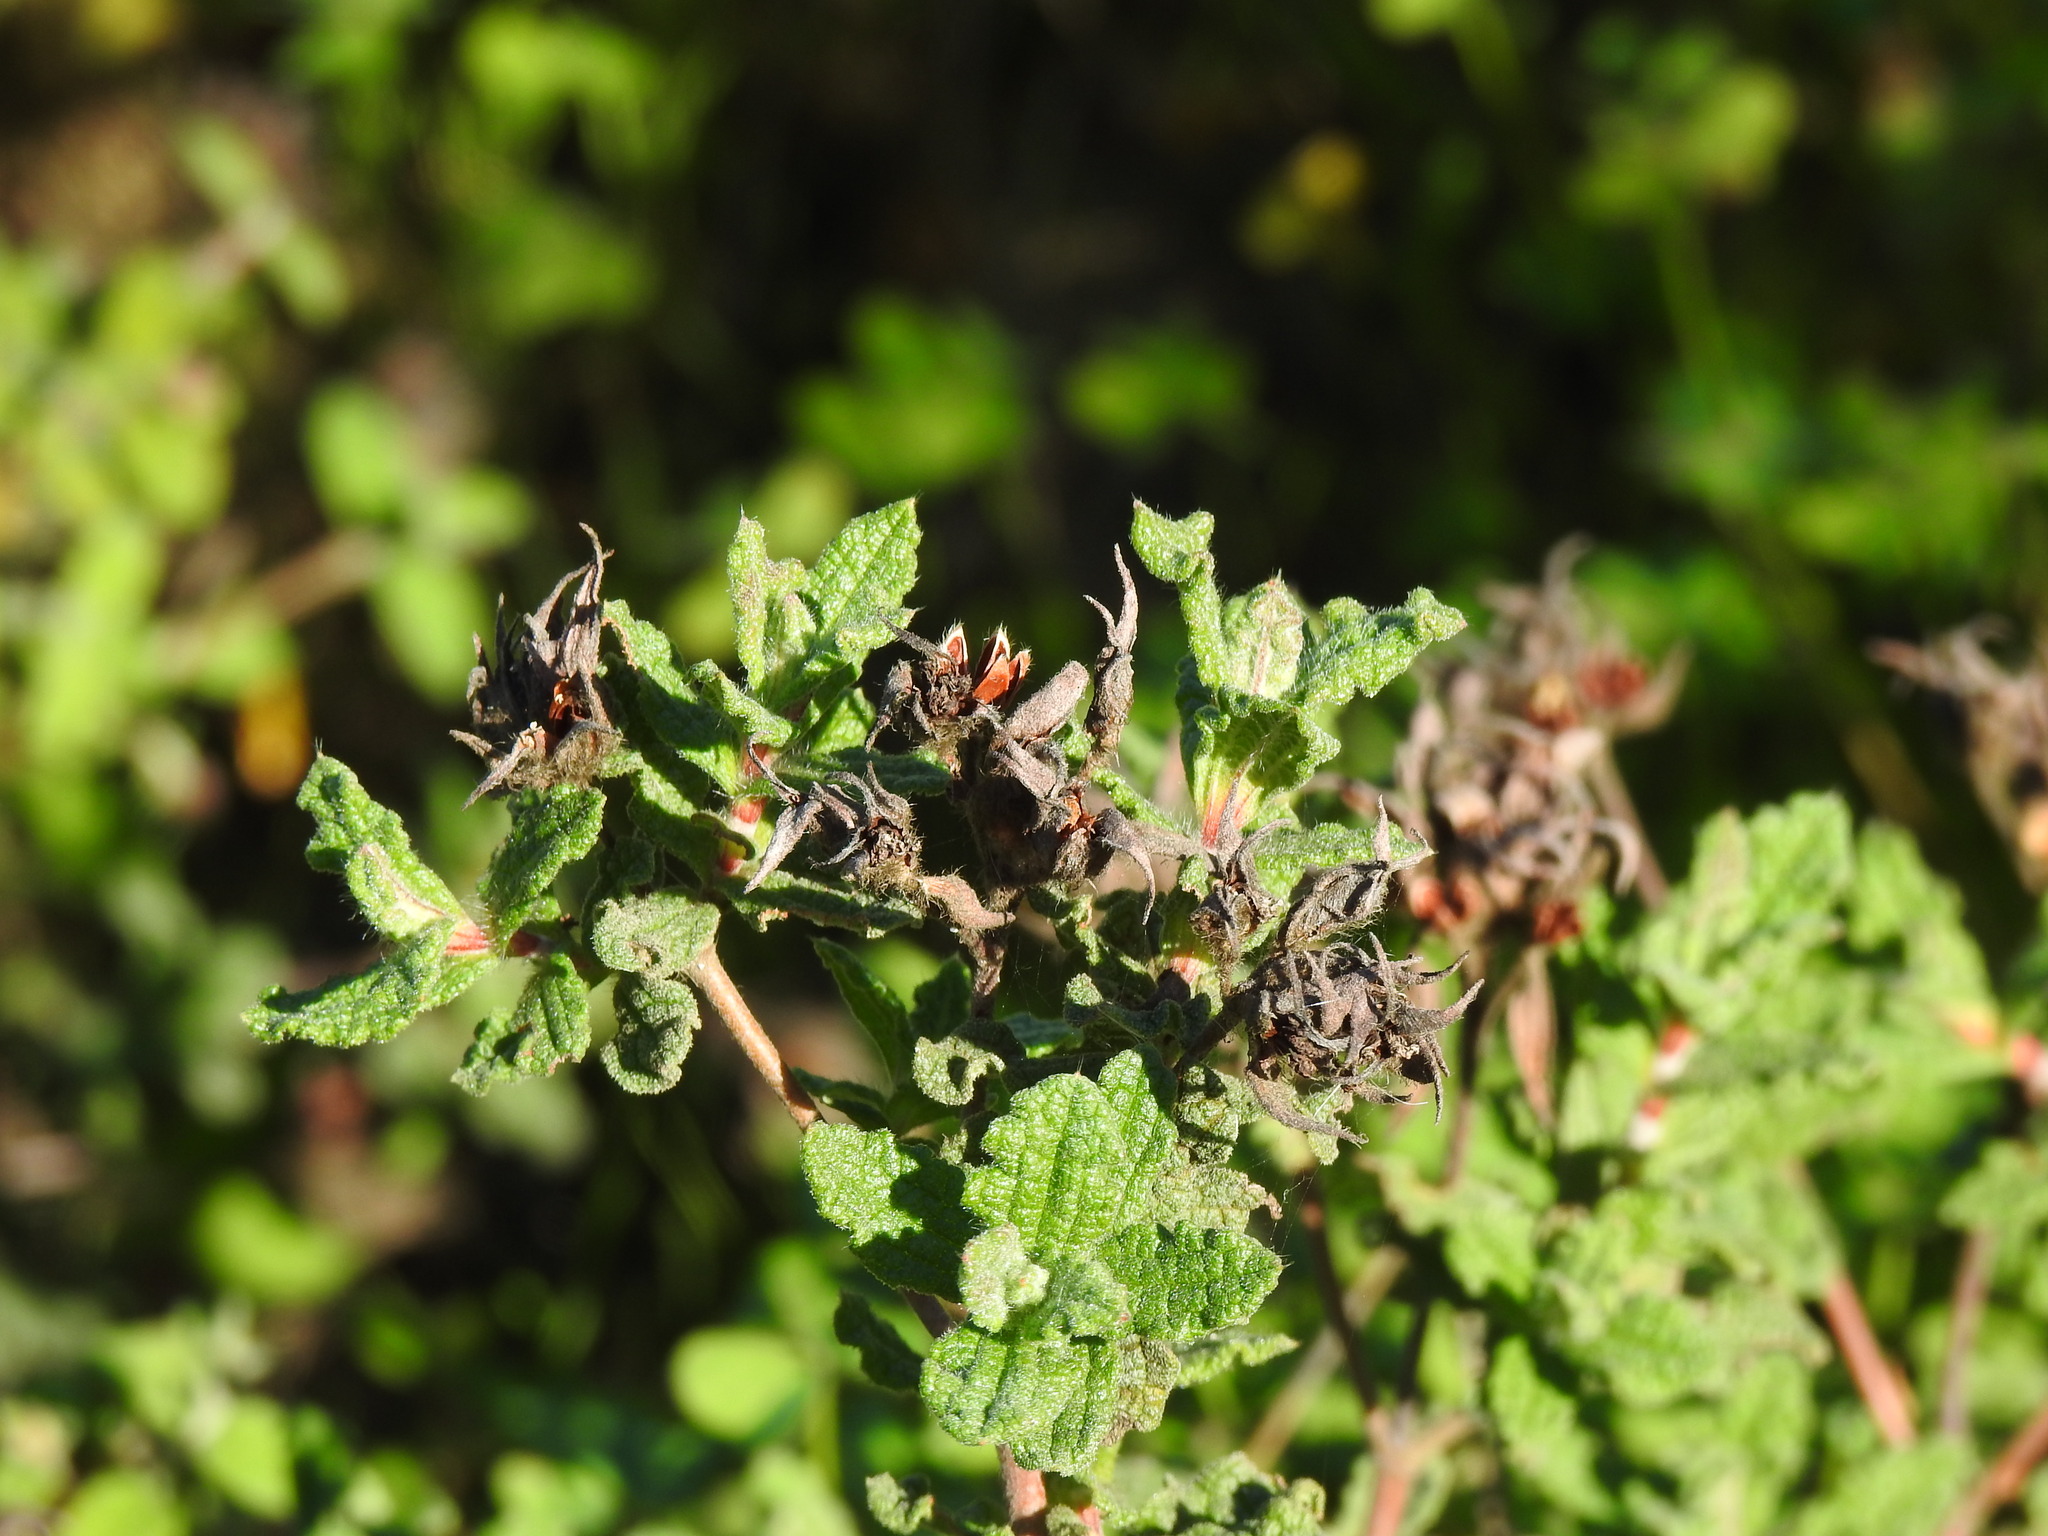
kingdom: Plantae
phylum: Tracheophyta
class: Magnoliopsida
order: Malvales
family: Cistaceae
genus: Cistus
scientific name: Cistus crispus
